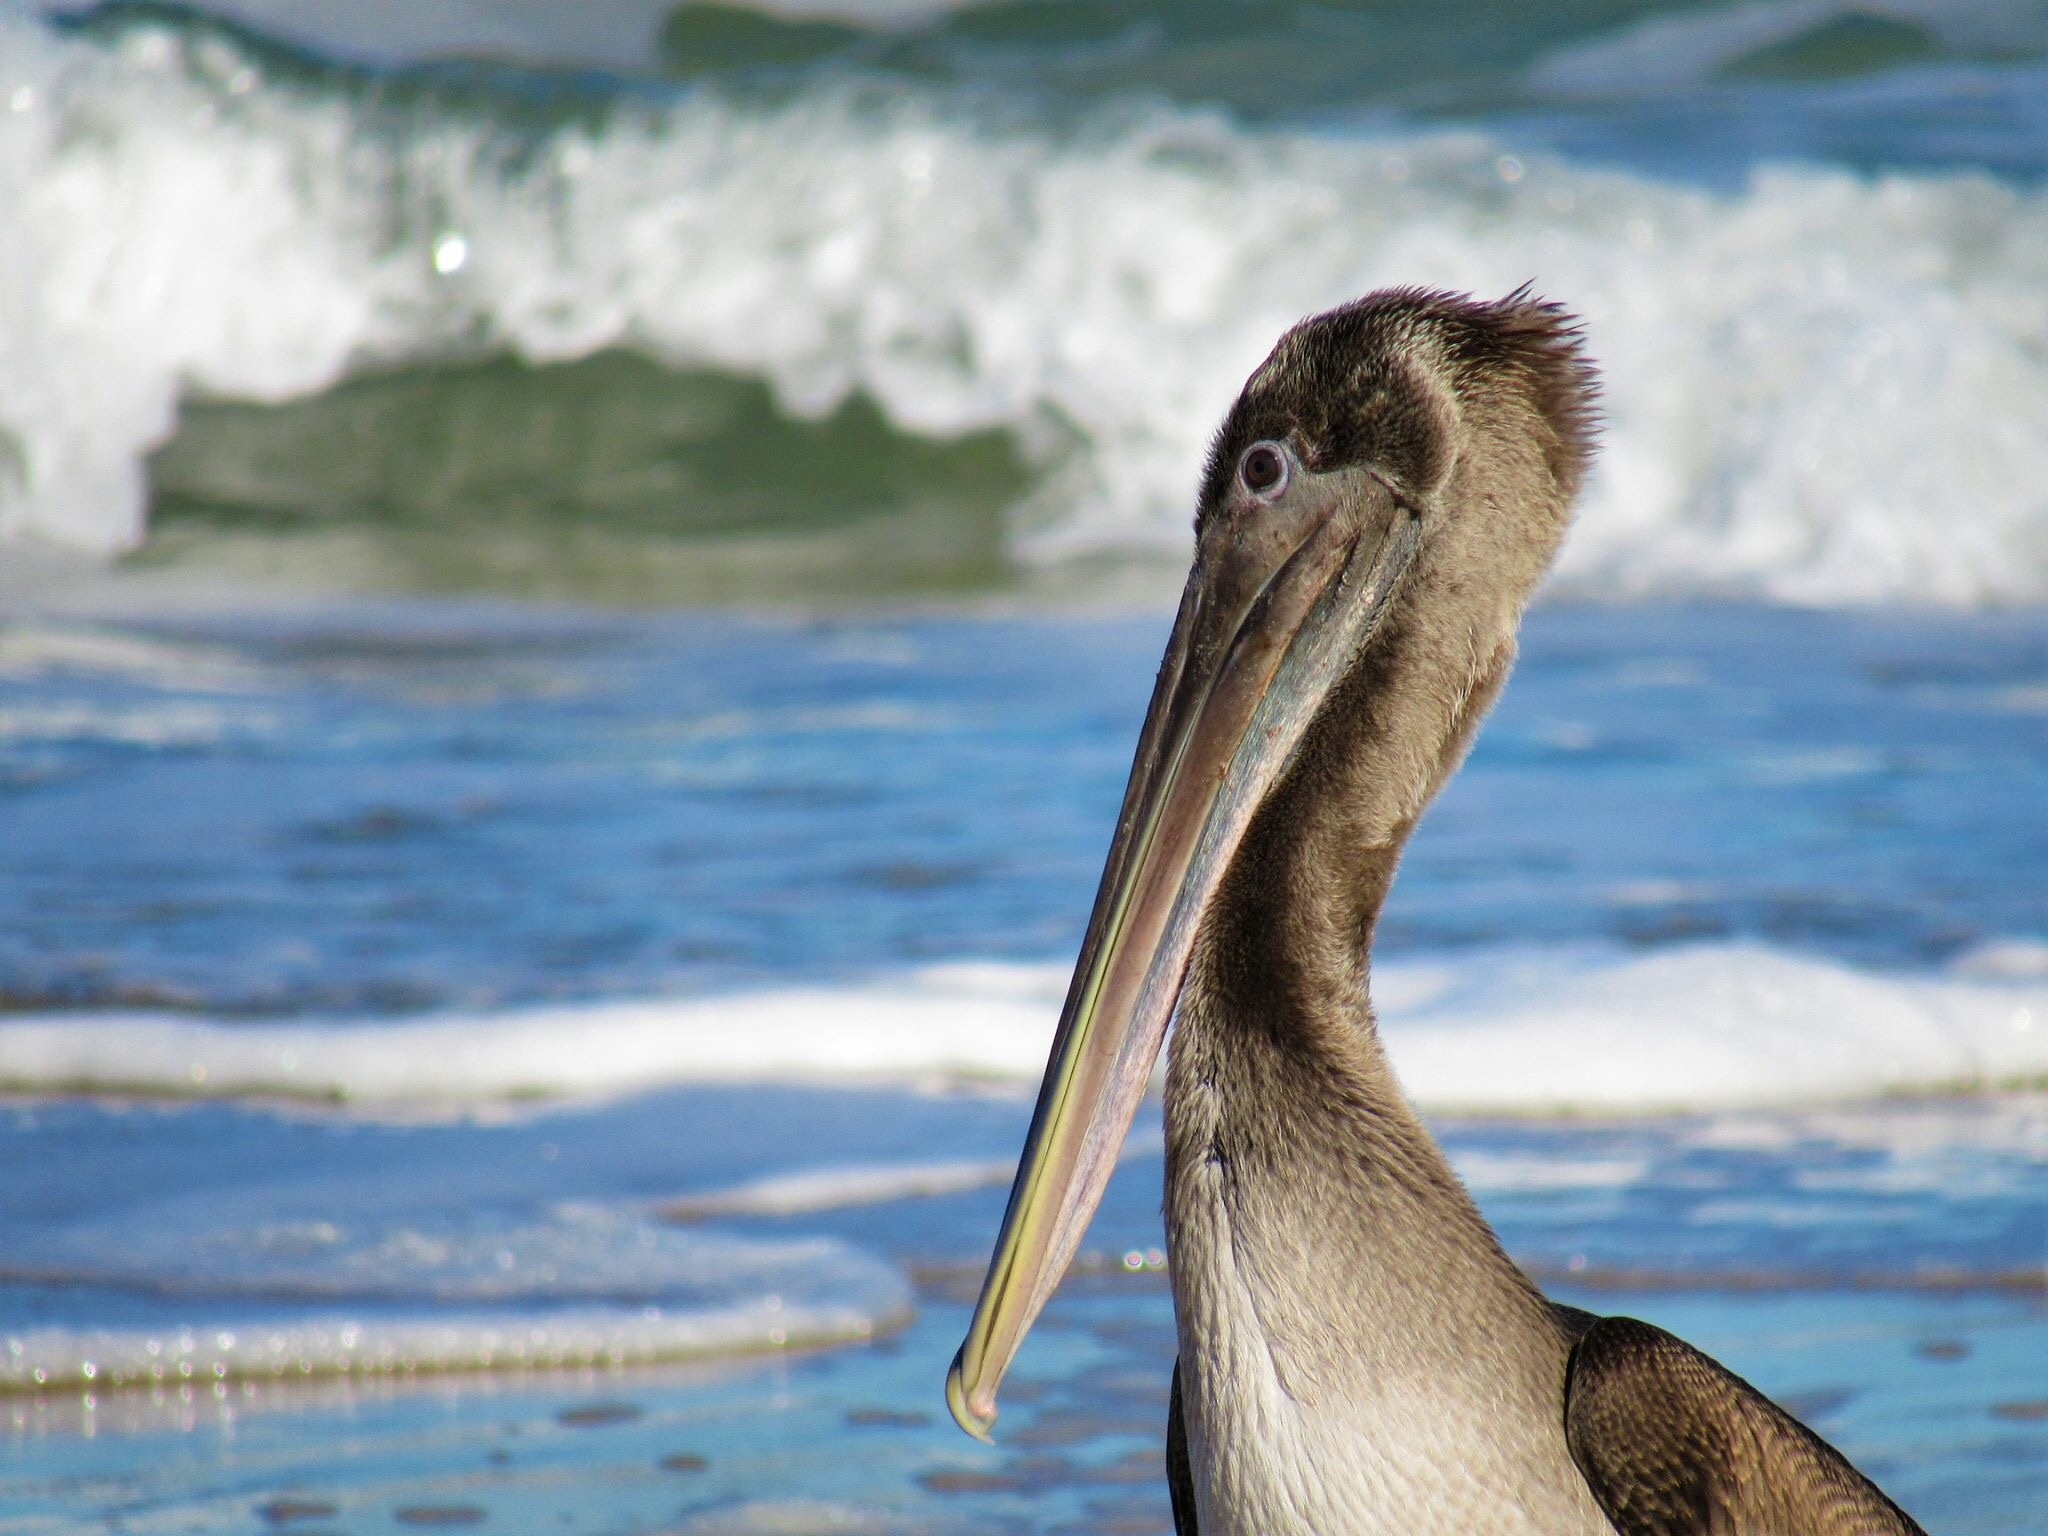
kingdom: Animalia
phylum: Chordata
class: Aves
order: Pelecaniformes
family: Pelecanidae
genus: Pelecanus
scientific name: Pelecanus occidentalis
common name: Brown pelican
